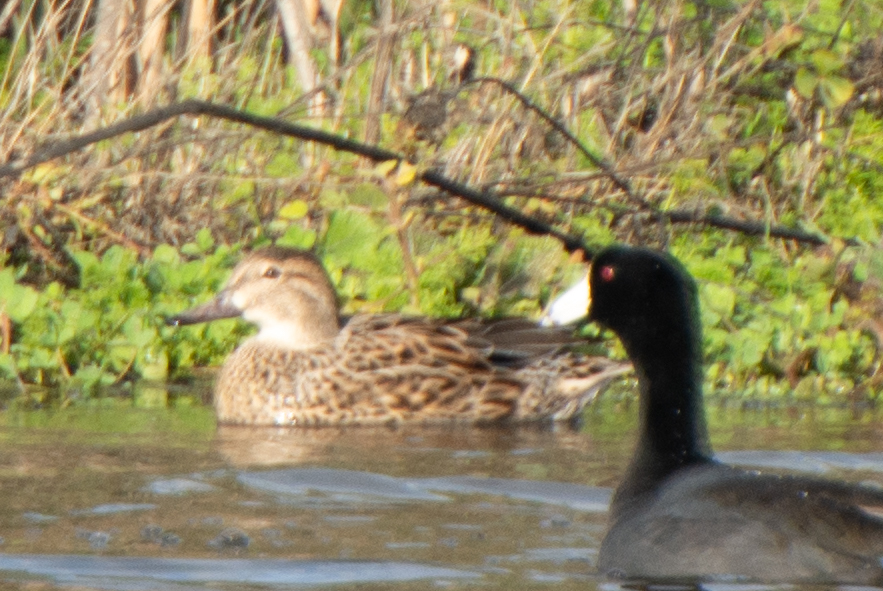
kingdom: Animalia
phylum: Chordata
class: Aves
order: Anseriformes
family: Anatidae
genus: Anas
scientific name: Anas crecca
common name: Eurasian teal
